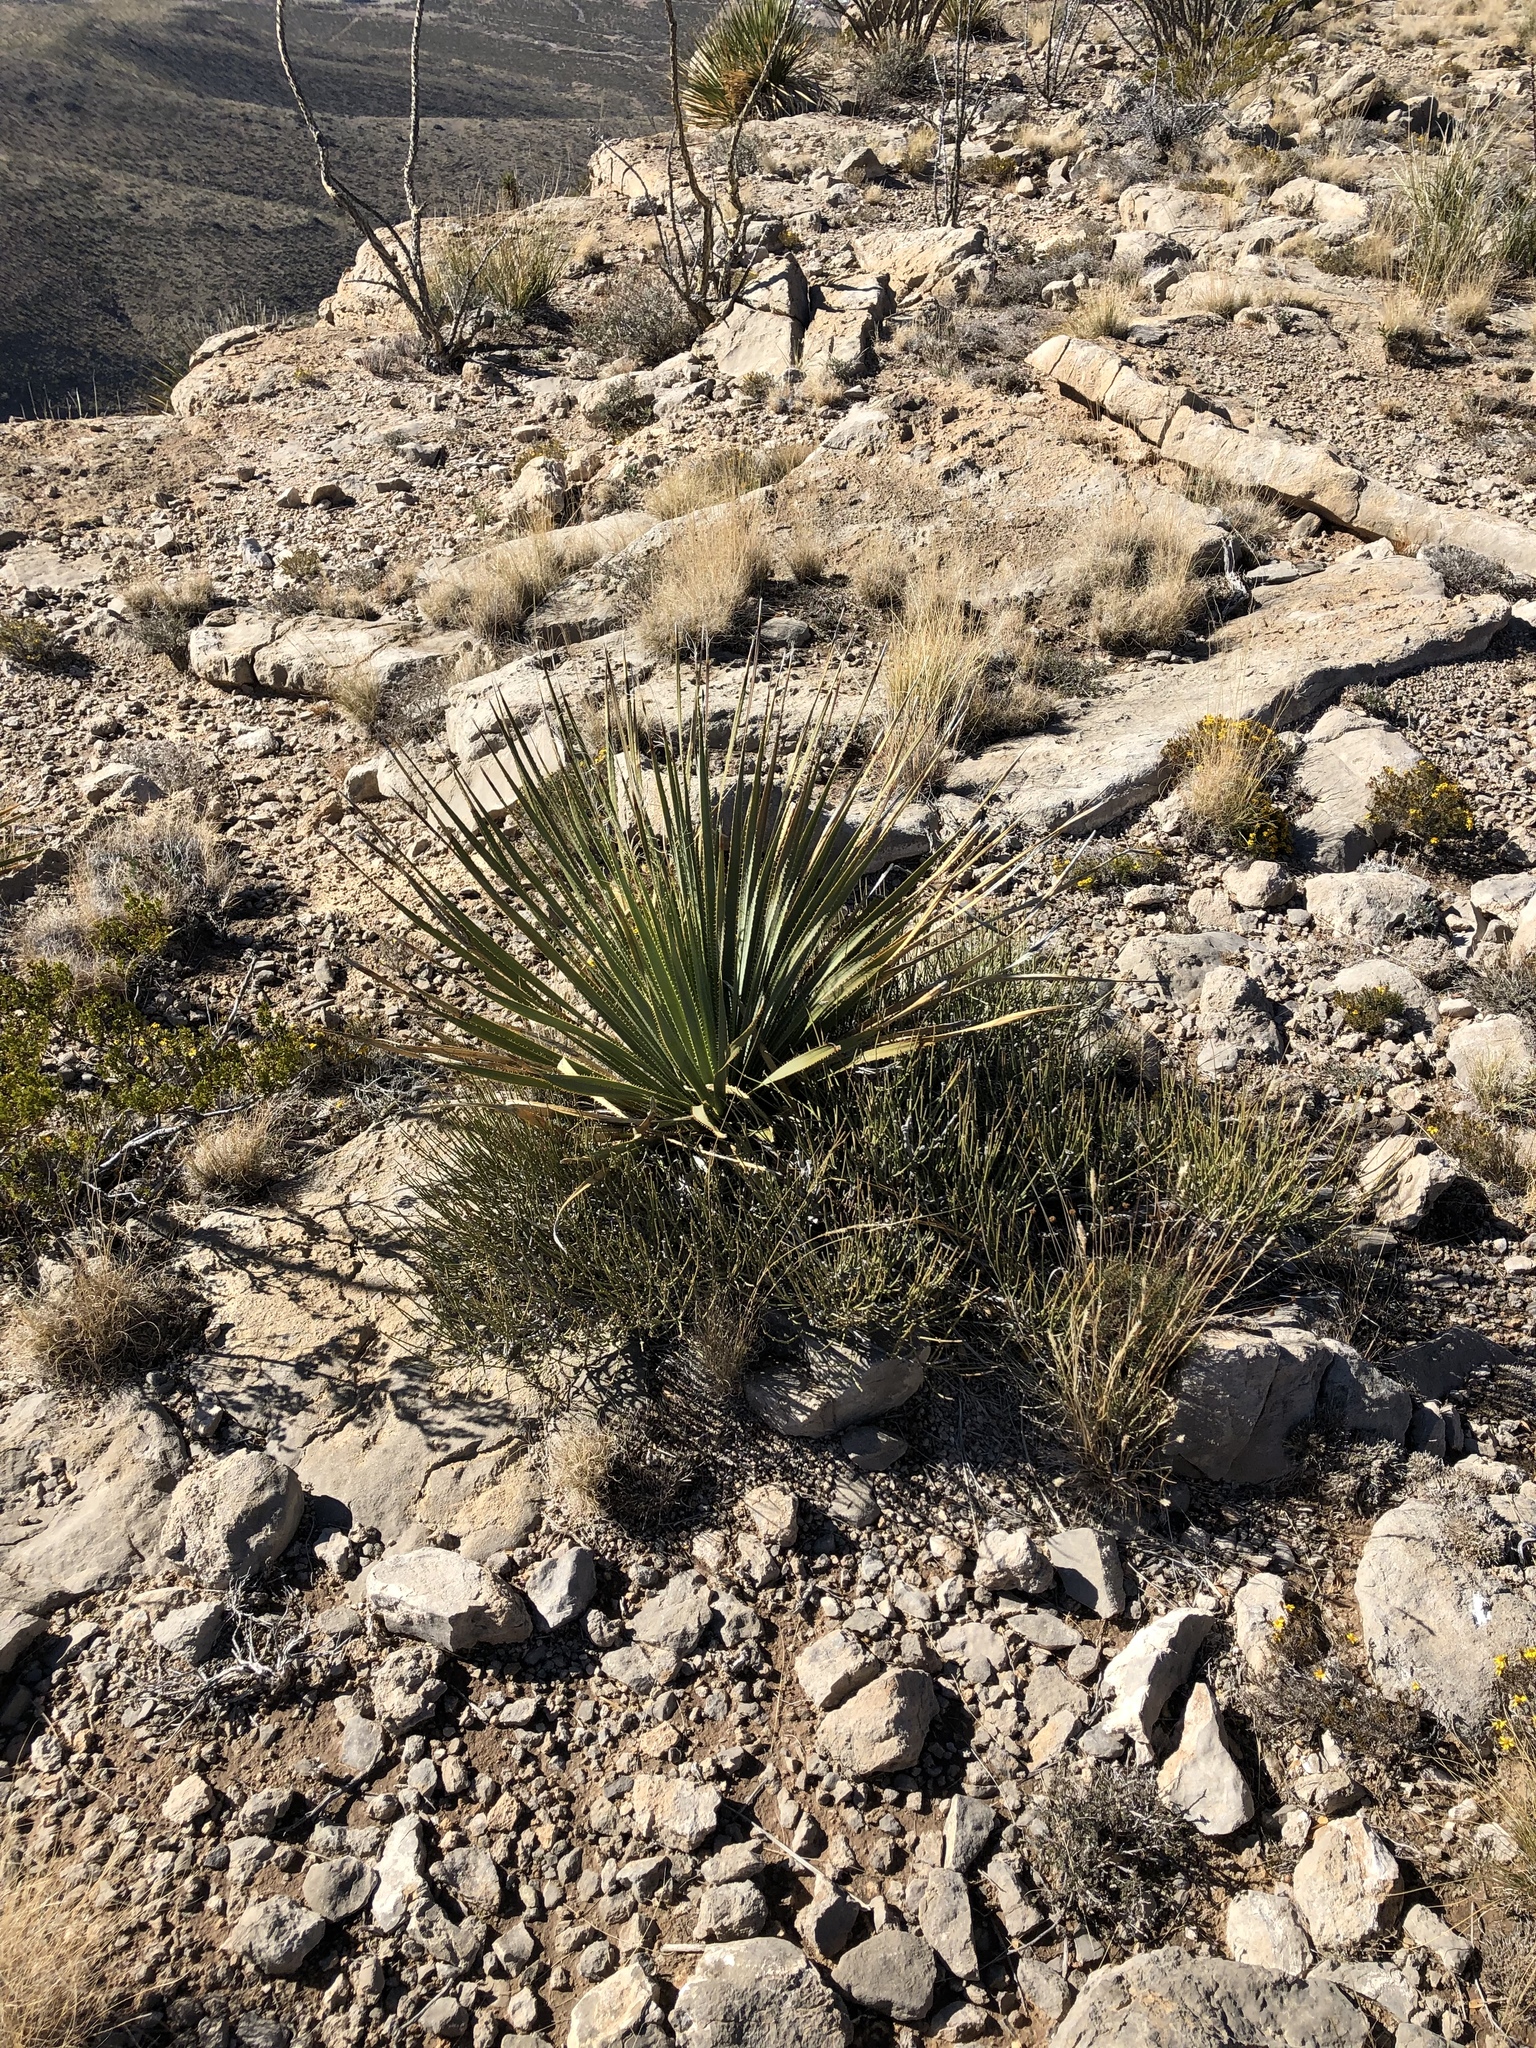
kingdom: Plantae
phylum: Tracheophyta
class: Liliopsida
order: Asparagales
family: Asparagaceae
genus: Yucca
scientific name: Yucca baccata
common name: Banana yucca
